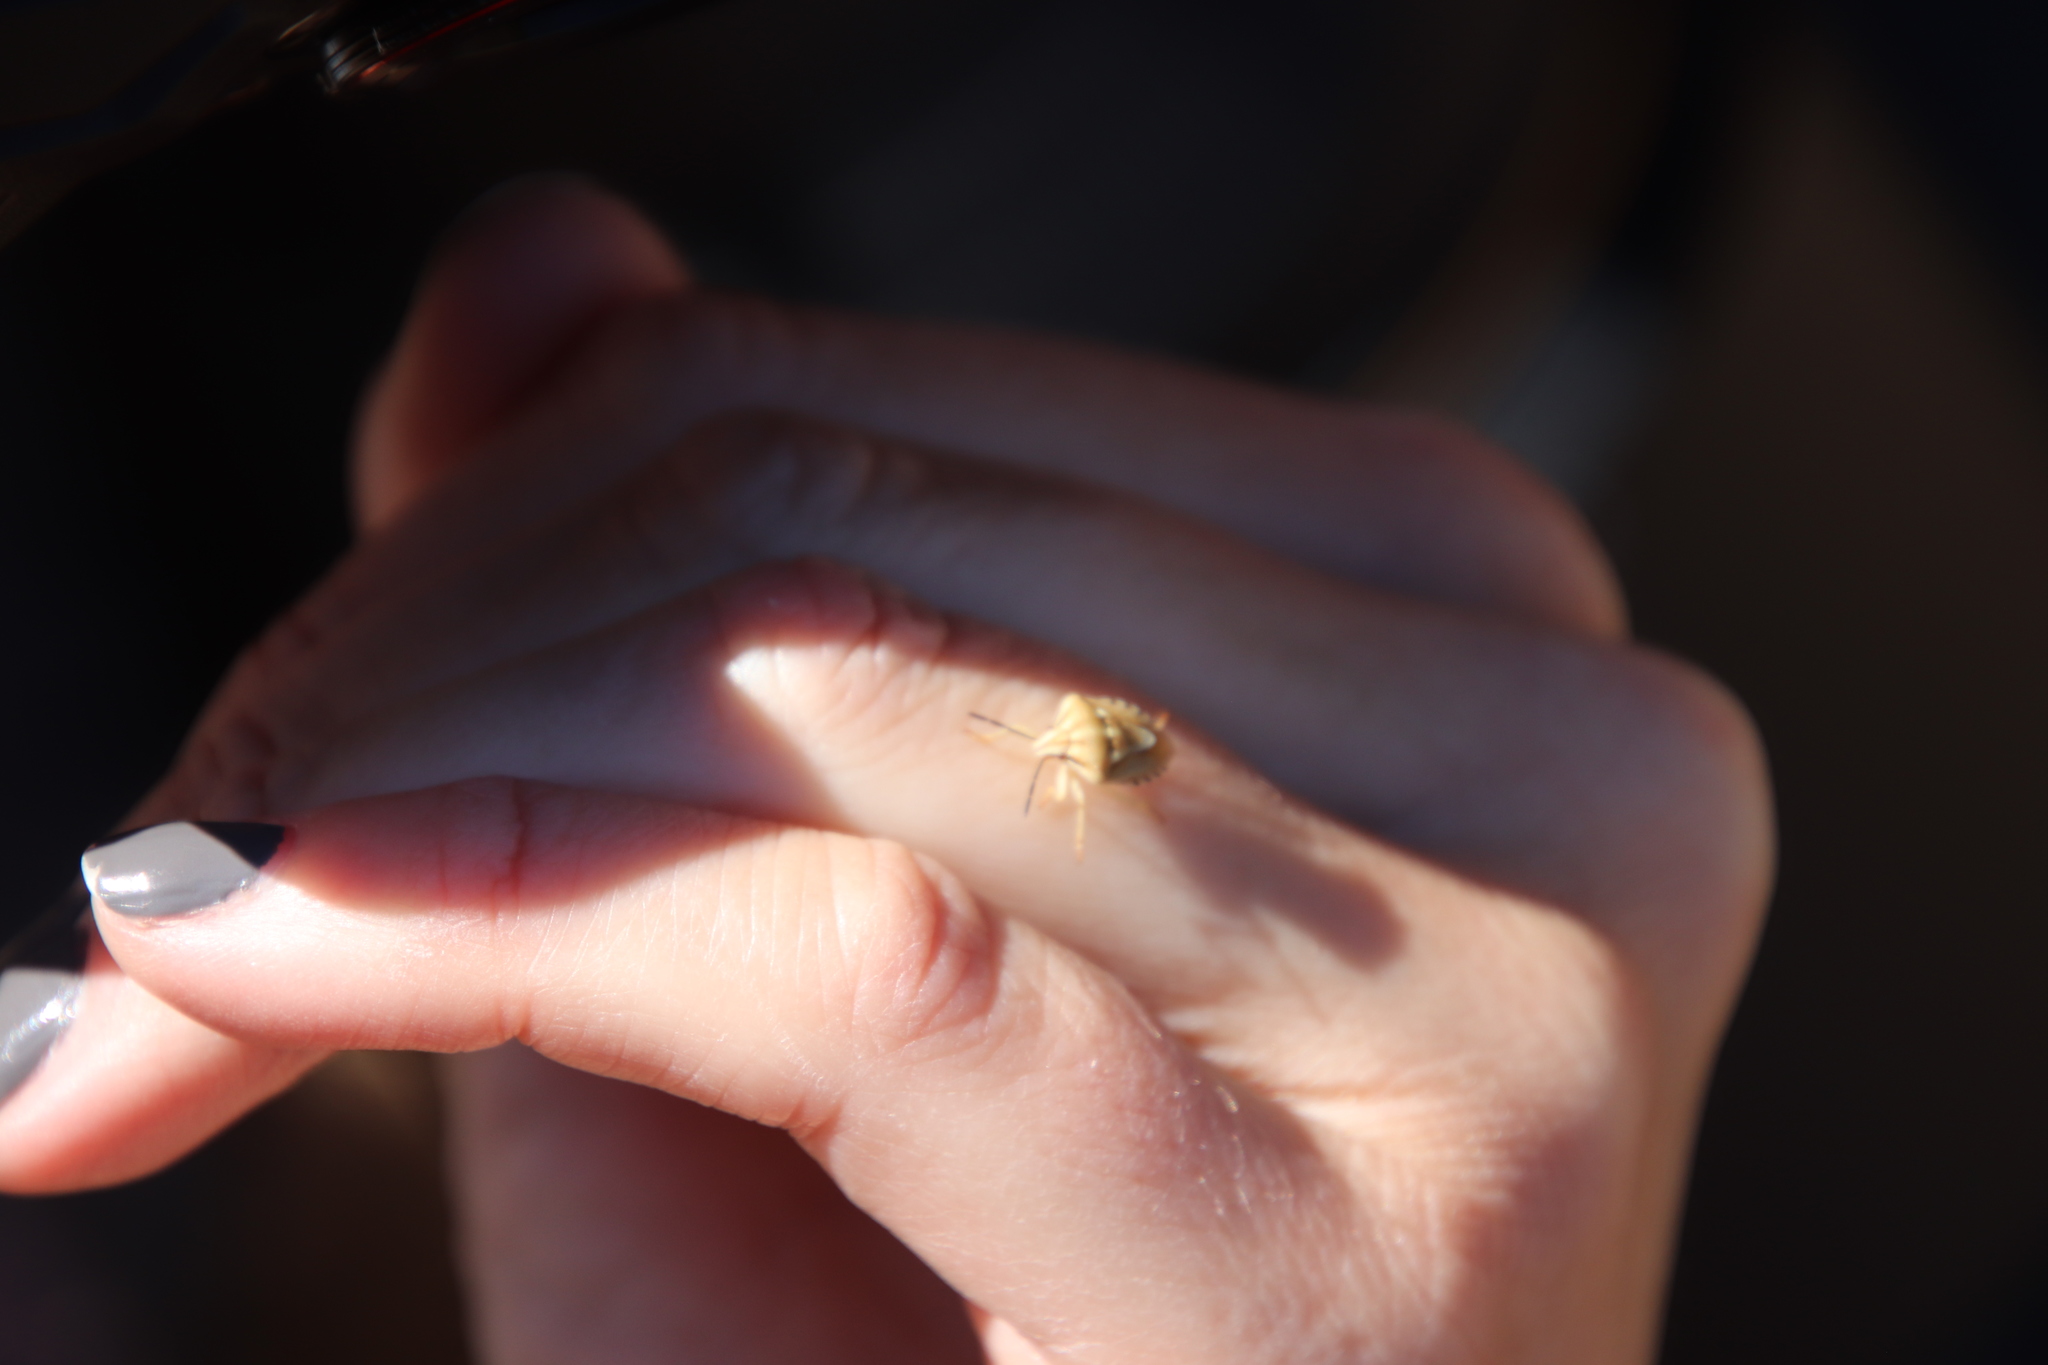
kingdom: Animalia
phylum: Arthropoda
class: Insecta
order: Hemiptera
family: Pentatomidae
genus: Antheminia
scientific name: Antheminia
